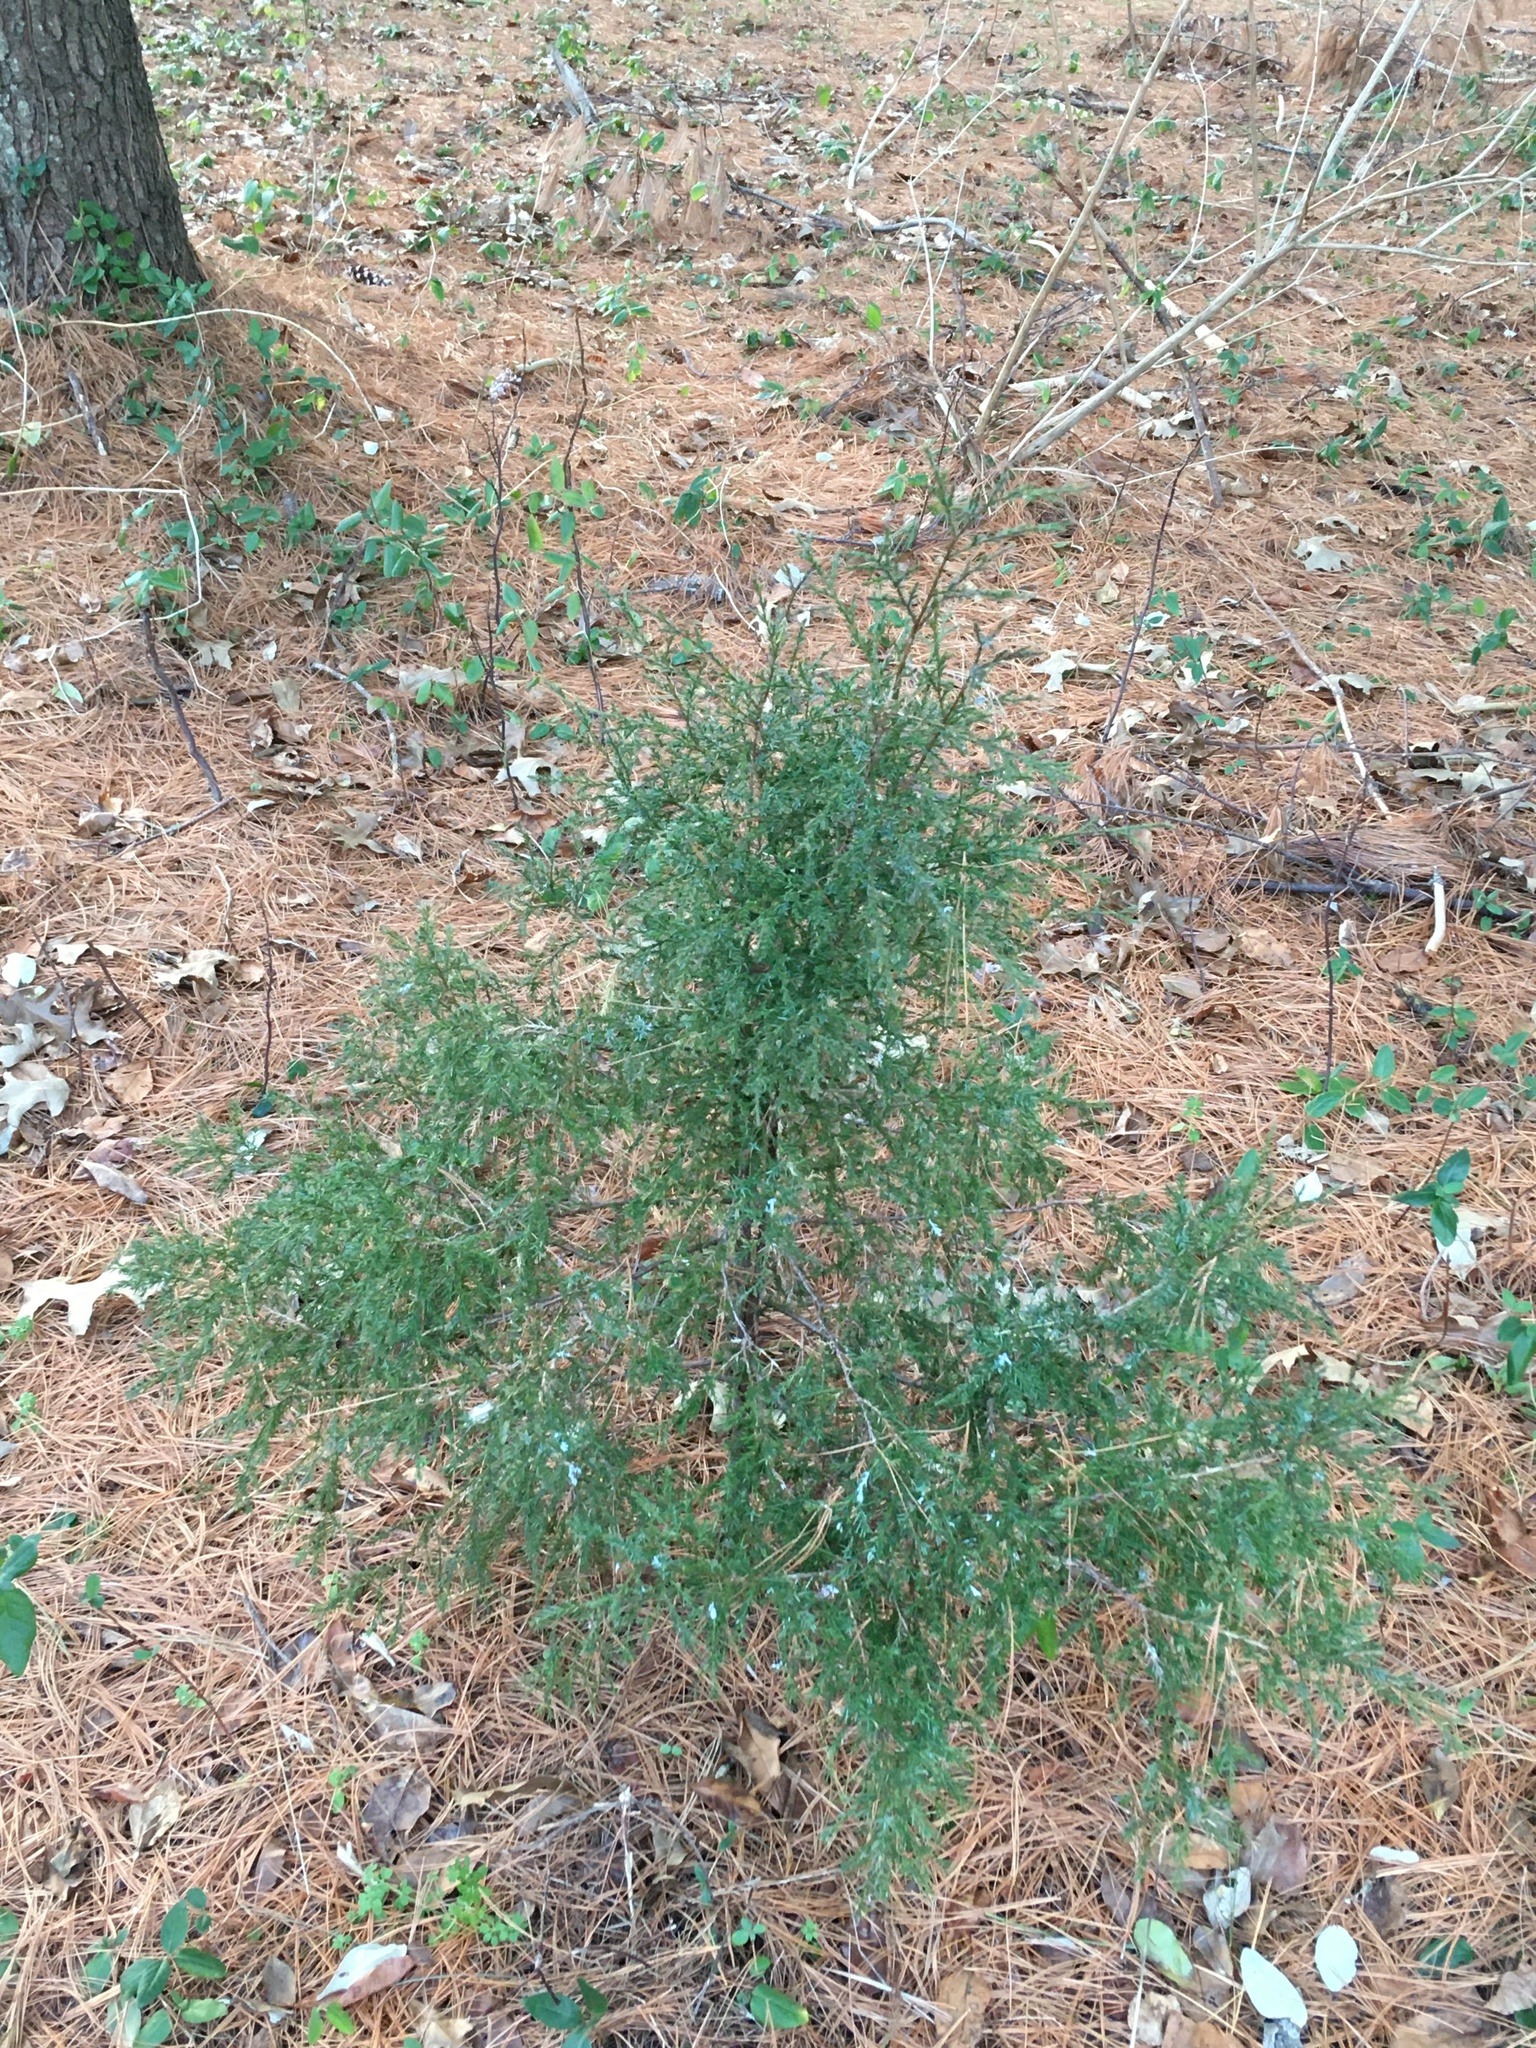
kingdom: Plantae
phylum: Tracheophyta
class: Pinopsida
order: Pinales
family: Pinaceae
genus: Pinus
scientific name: Pinus strobus
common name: Weymouth pine
